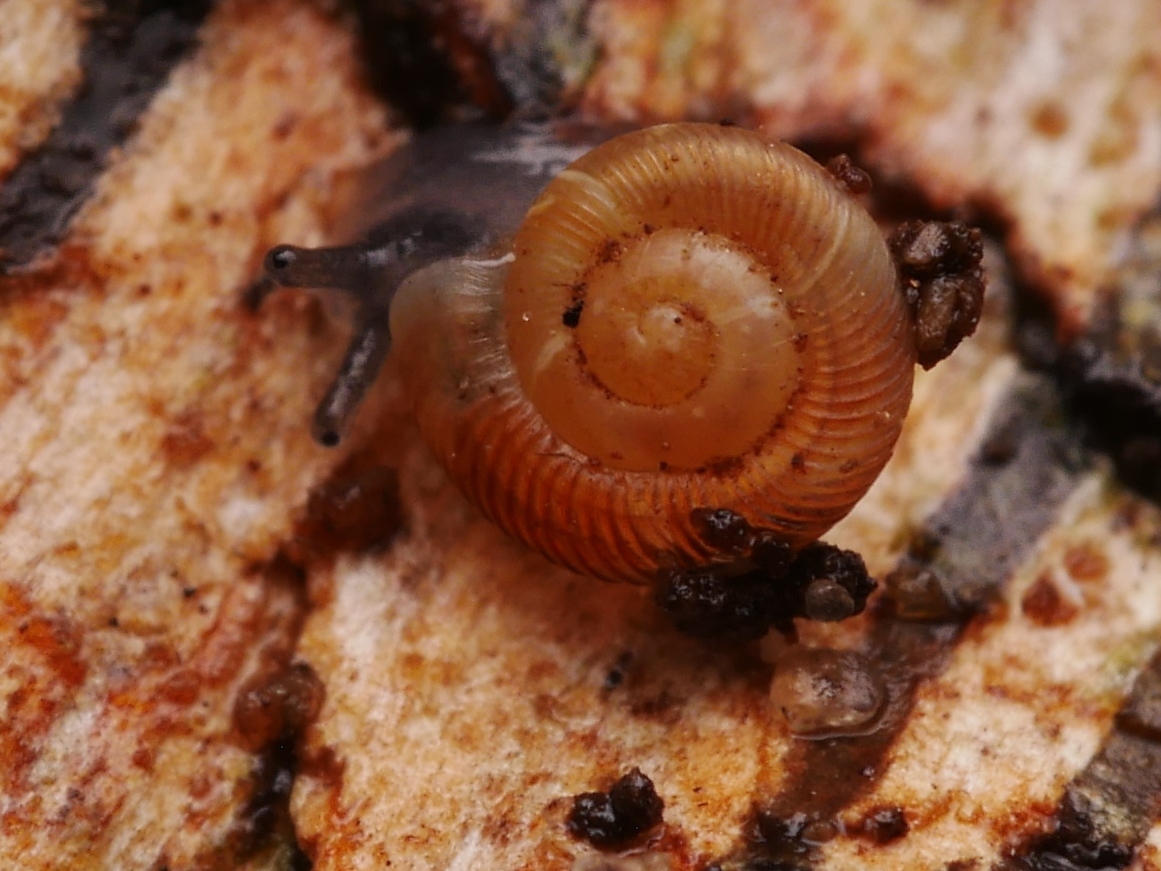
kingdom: Animalia
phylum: Mollusca
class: Gastropoda
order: Stylommatophora
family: Discidae
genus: Discus
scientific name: Discus rotundatus
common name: Rounded snail
